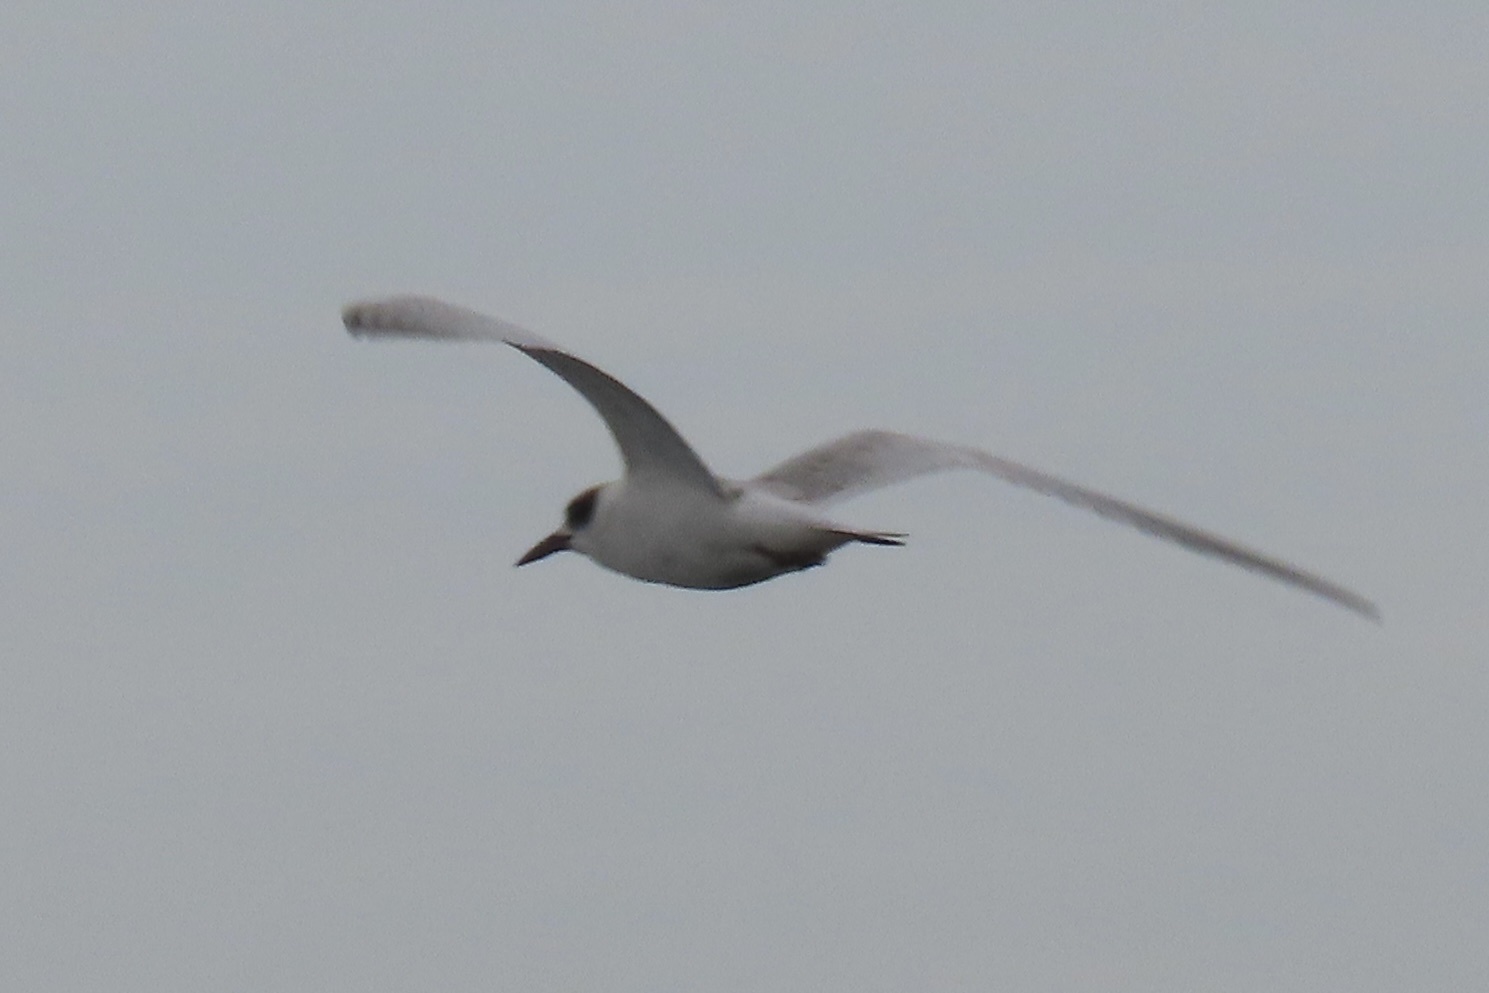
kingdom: Animalia
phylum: Chordata
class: Aves
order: Charadriiformes
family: Laridae
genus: Sterna
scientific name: Sterna forsteri
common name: Forster's tern
